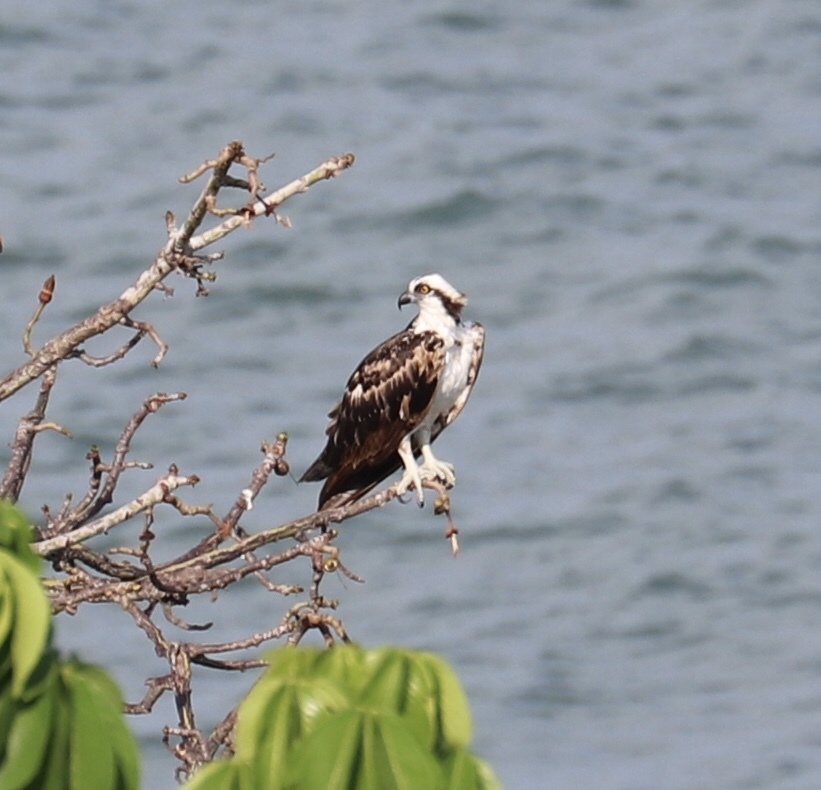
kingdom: Animalia
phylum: Chordata
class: Aves
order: Accipitriformes
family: Pandionidae
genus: Pandion
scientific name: Pandion haliaetus
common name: Osprey
